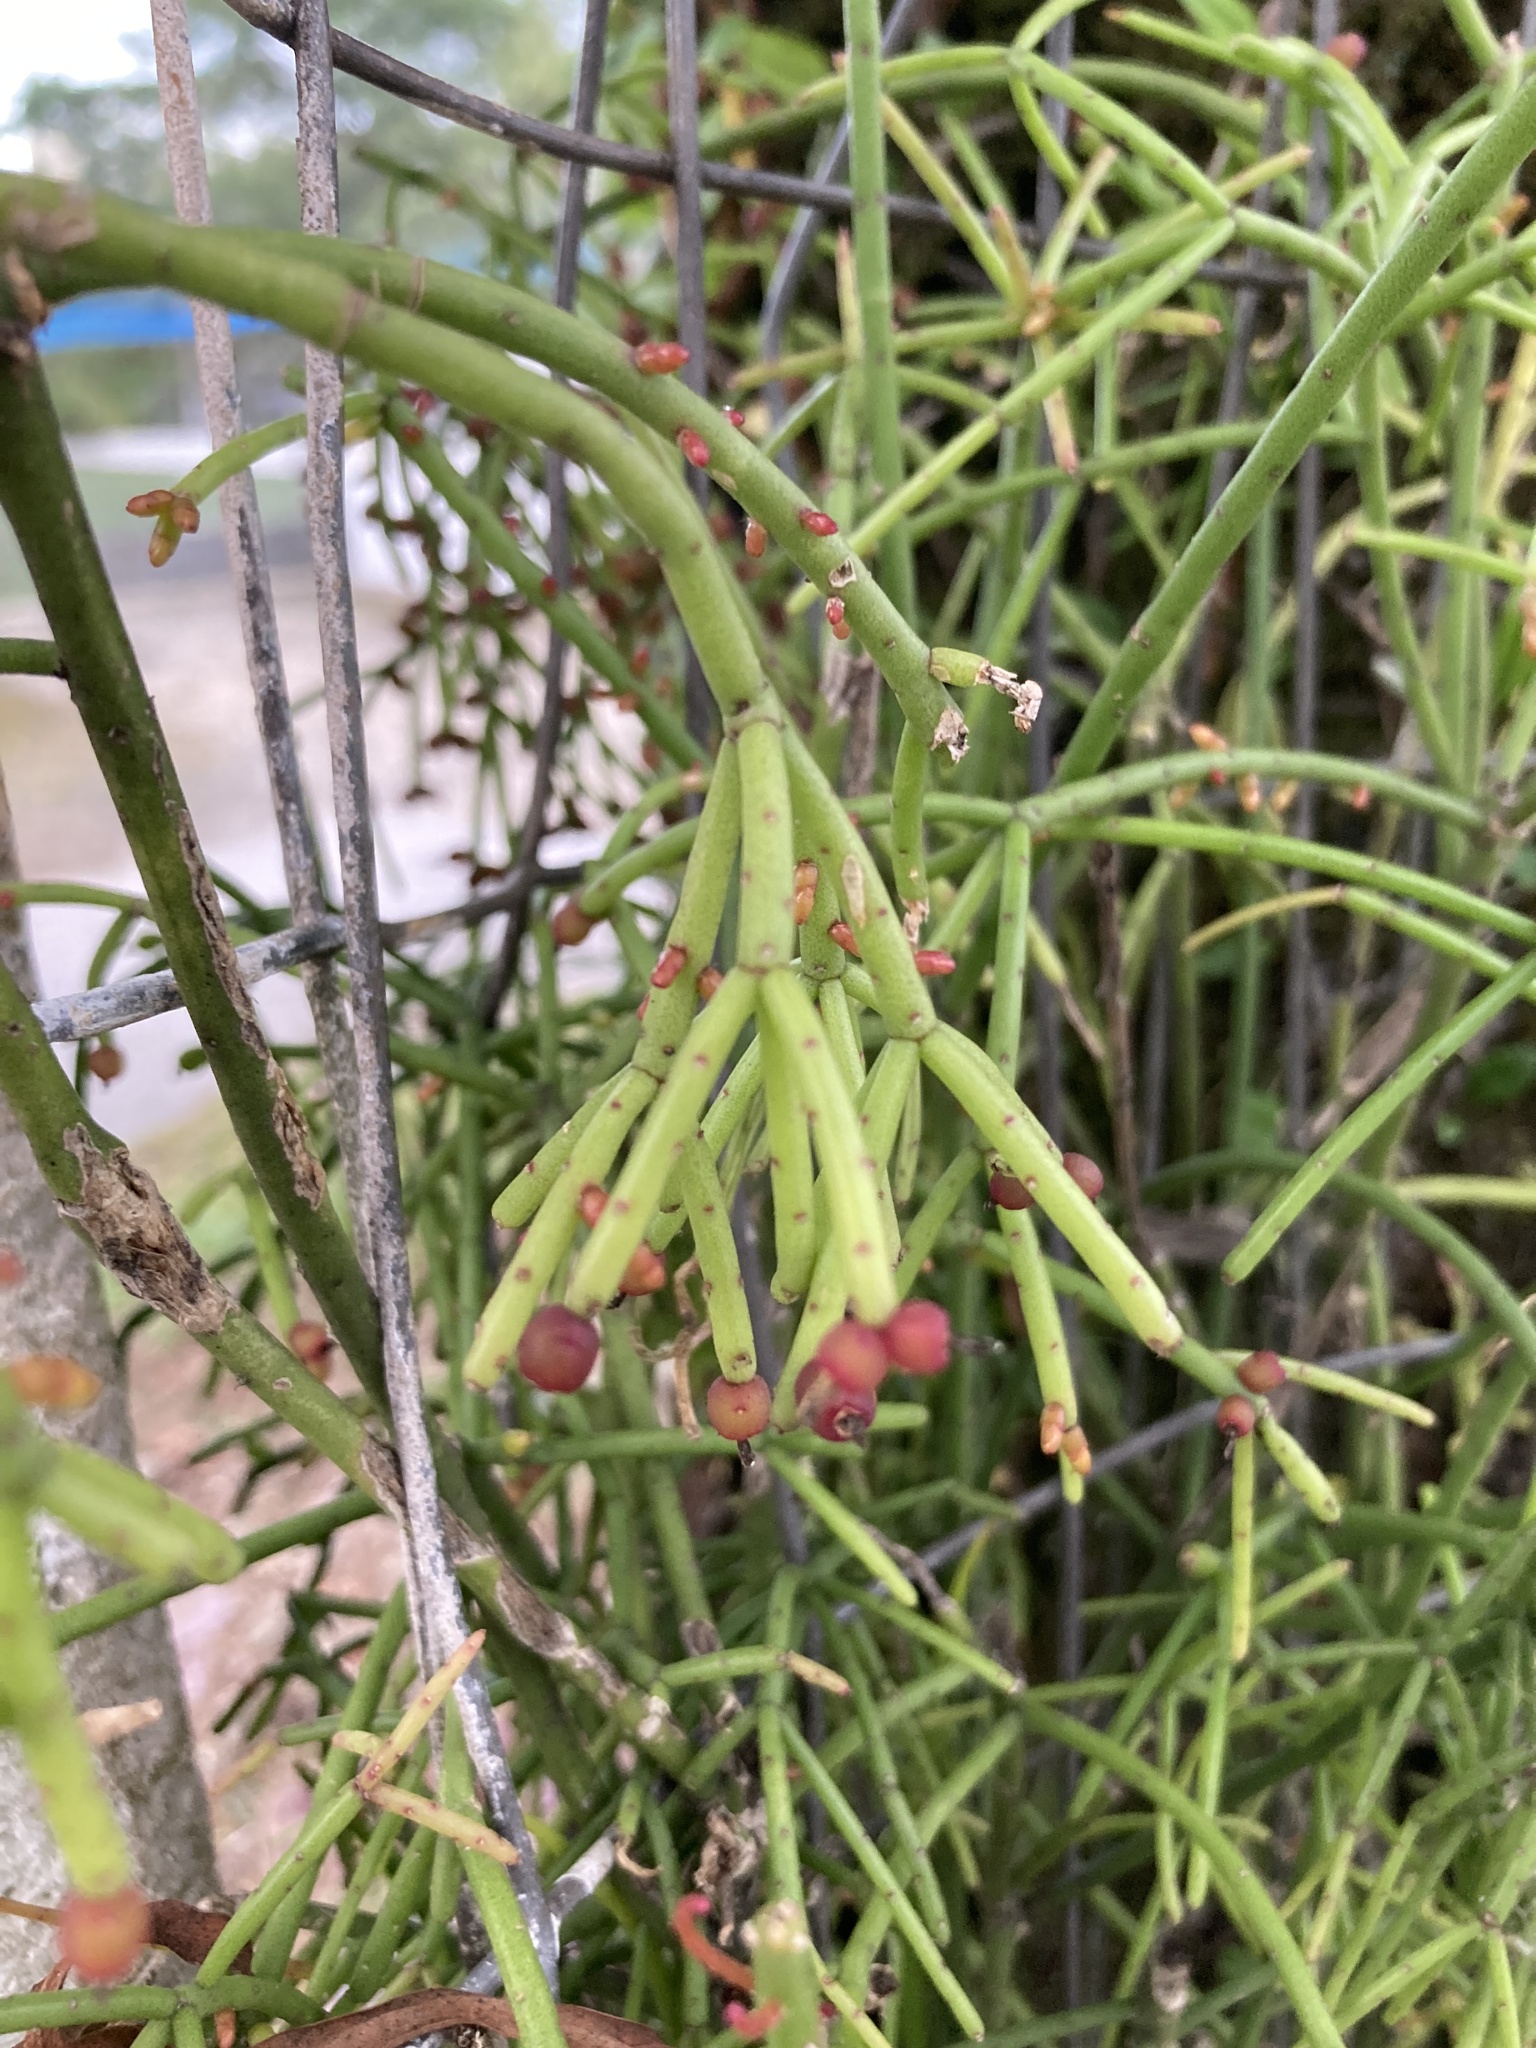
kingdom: Plantae
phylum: Tracheophyta
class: Magnoliopsida
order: Caryophyllales
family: Cactaceae
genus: Rhipsalis
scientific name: Rhipsalis teres
